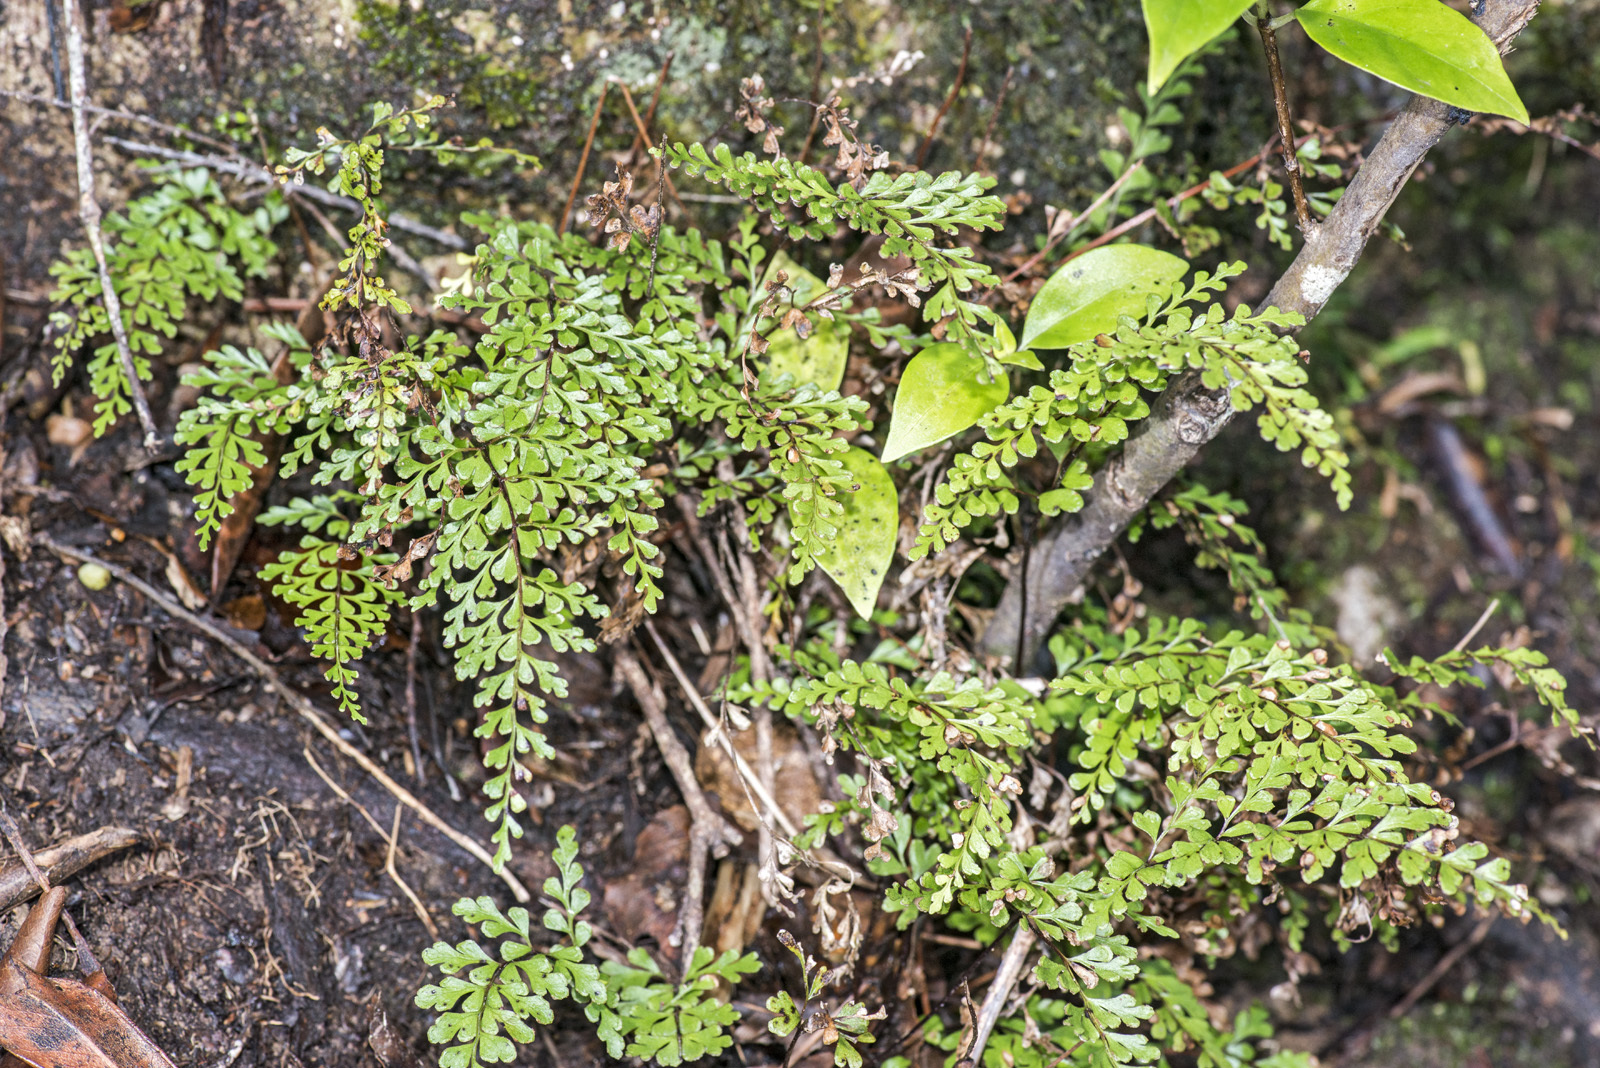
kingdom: Plantae
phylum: Tracheophyta
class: Polypodiopsida
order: Polypodiales
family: Lindsaeaceae
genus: Lindsaea
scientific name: Lindsaea trichomanoides
